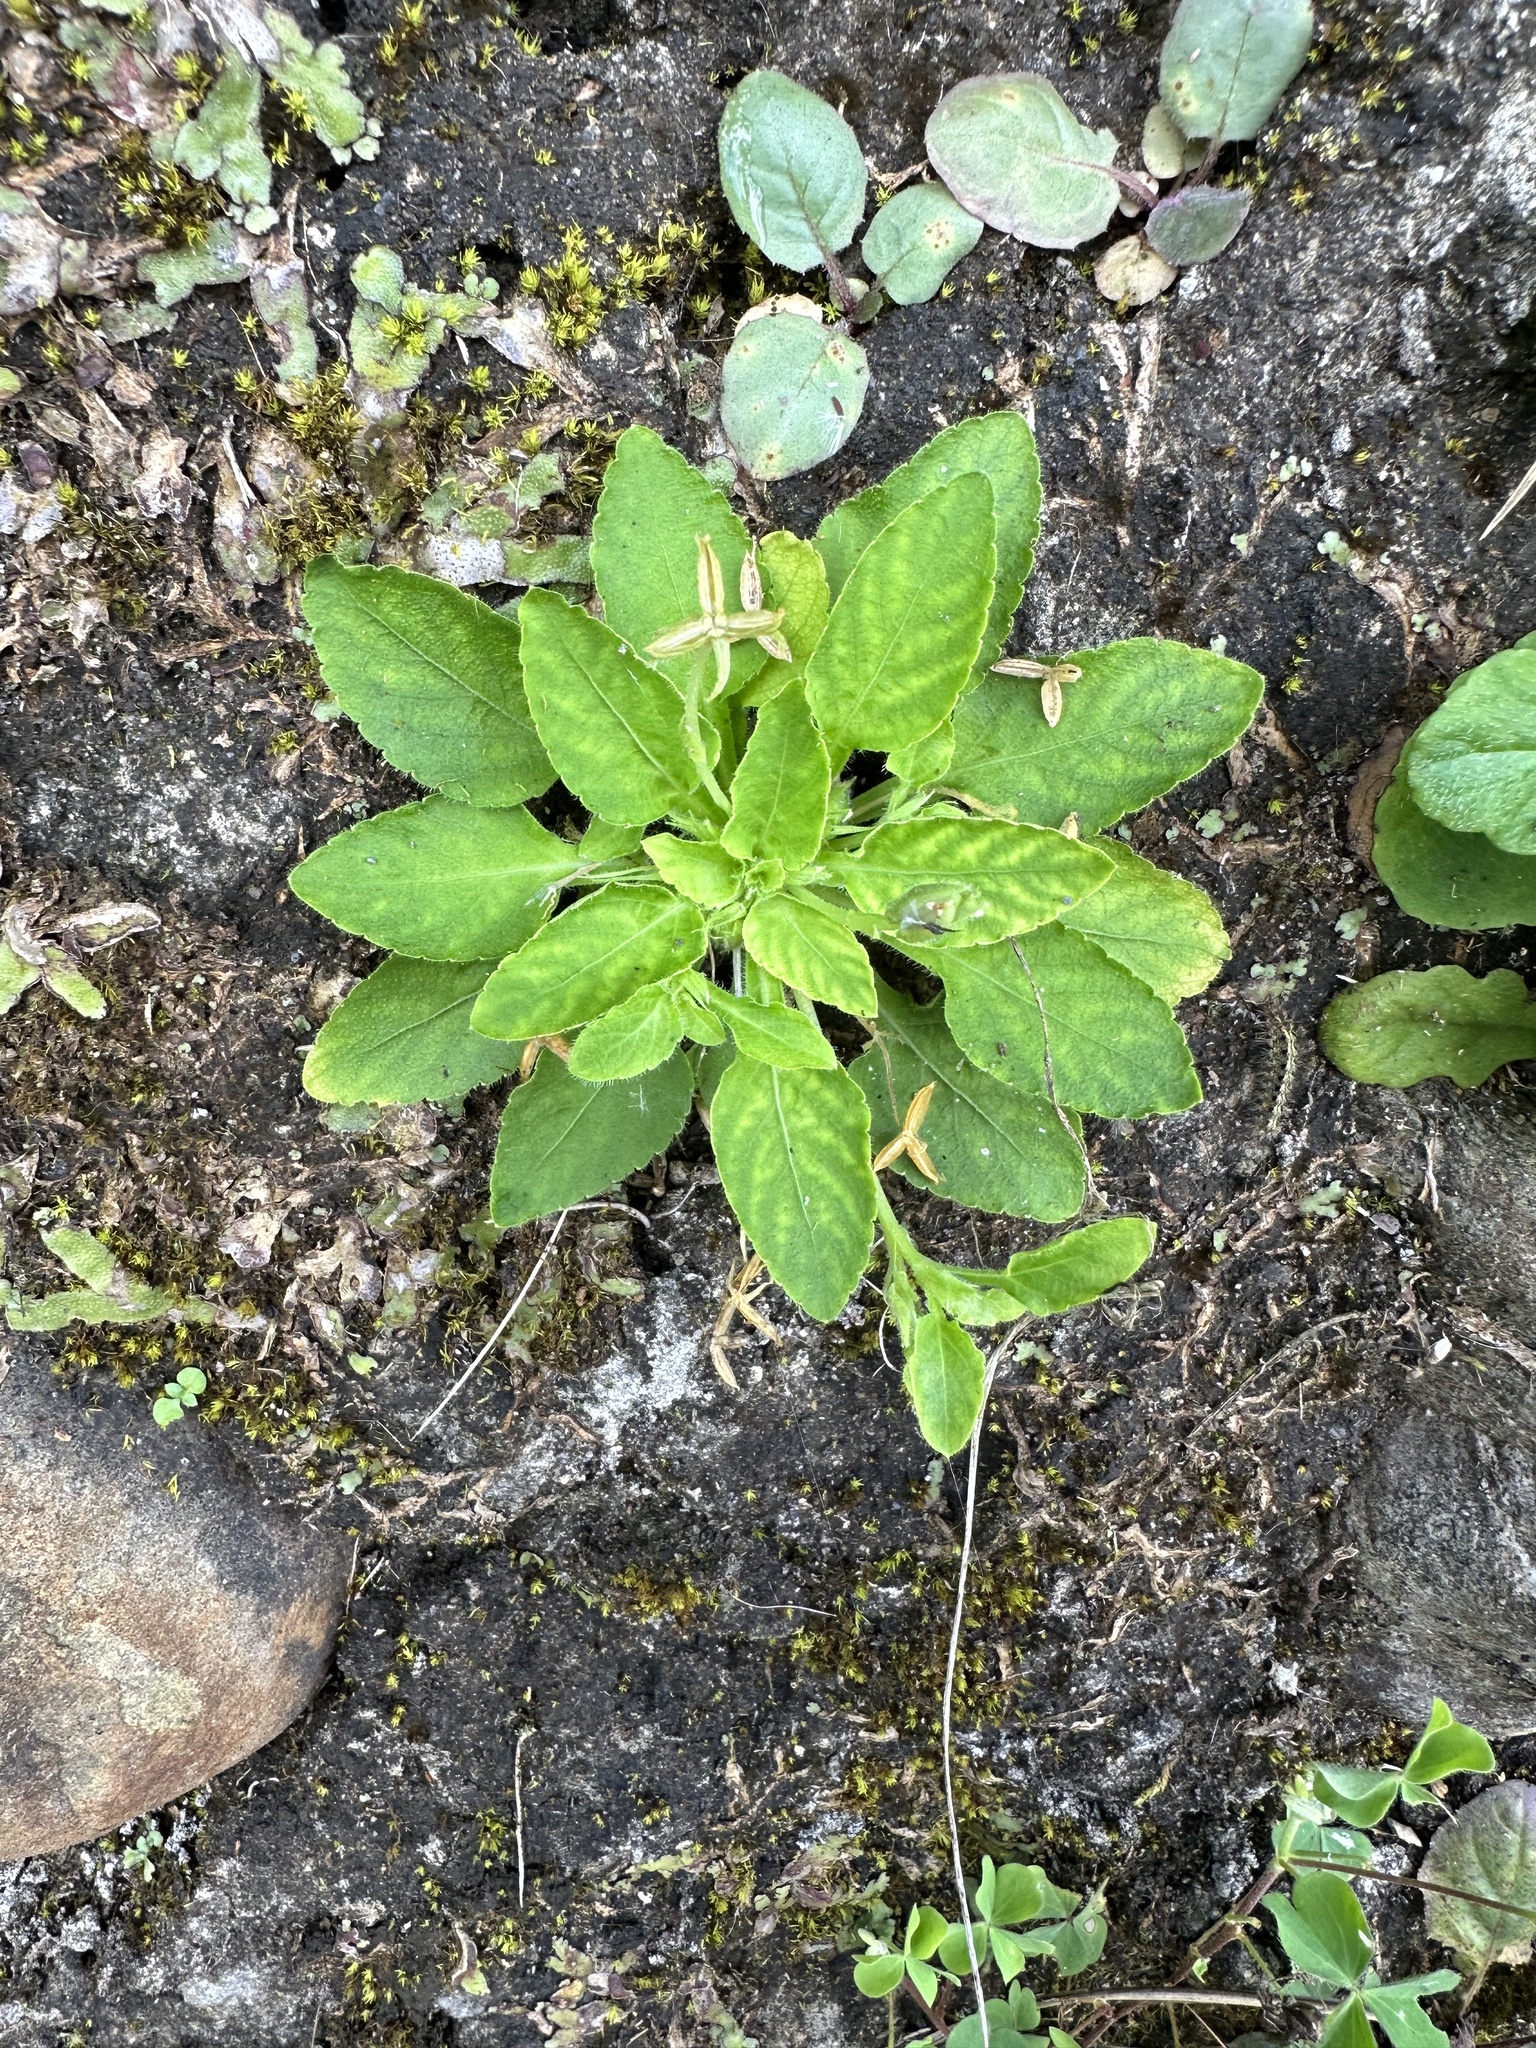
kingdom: Plantae
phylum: Tracheophyta
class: Magnoliopsida
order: Malpighiales
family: Violaceae
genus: Viola
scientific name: Viola diffusa
